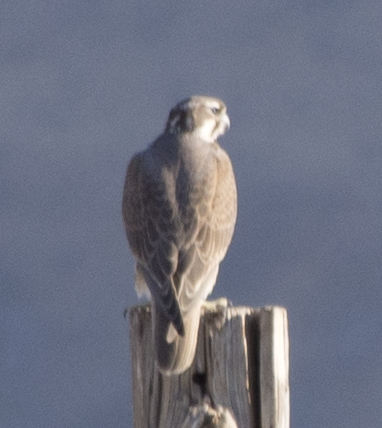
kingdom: Animalia
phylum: Chordata
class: Aves
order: Falconiformes
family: Falconidae
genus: Falco
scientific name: Falco mexicanus
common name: Prairie falcon
